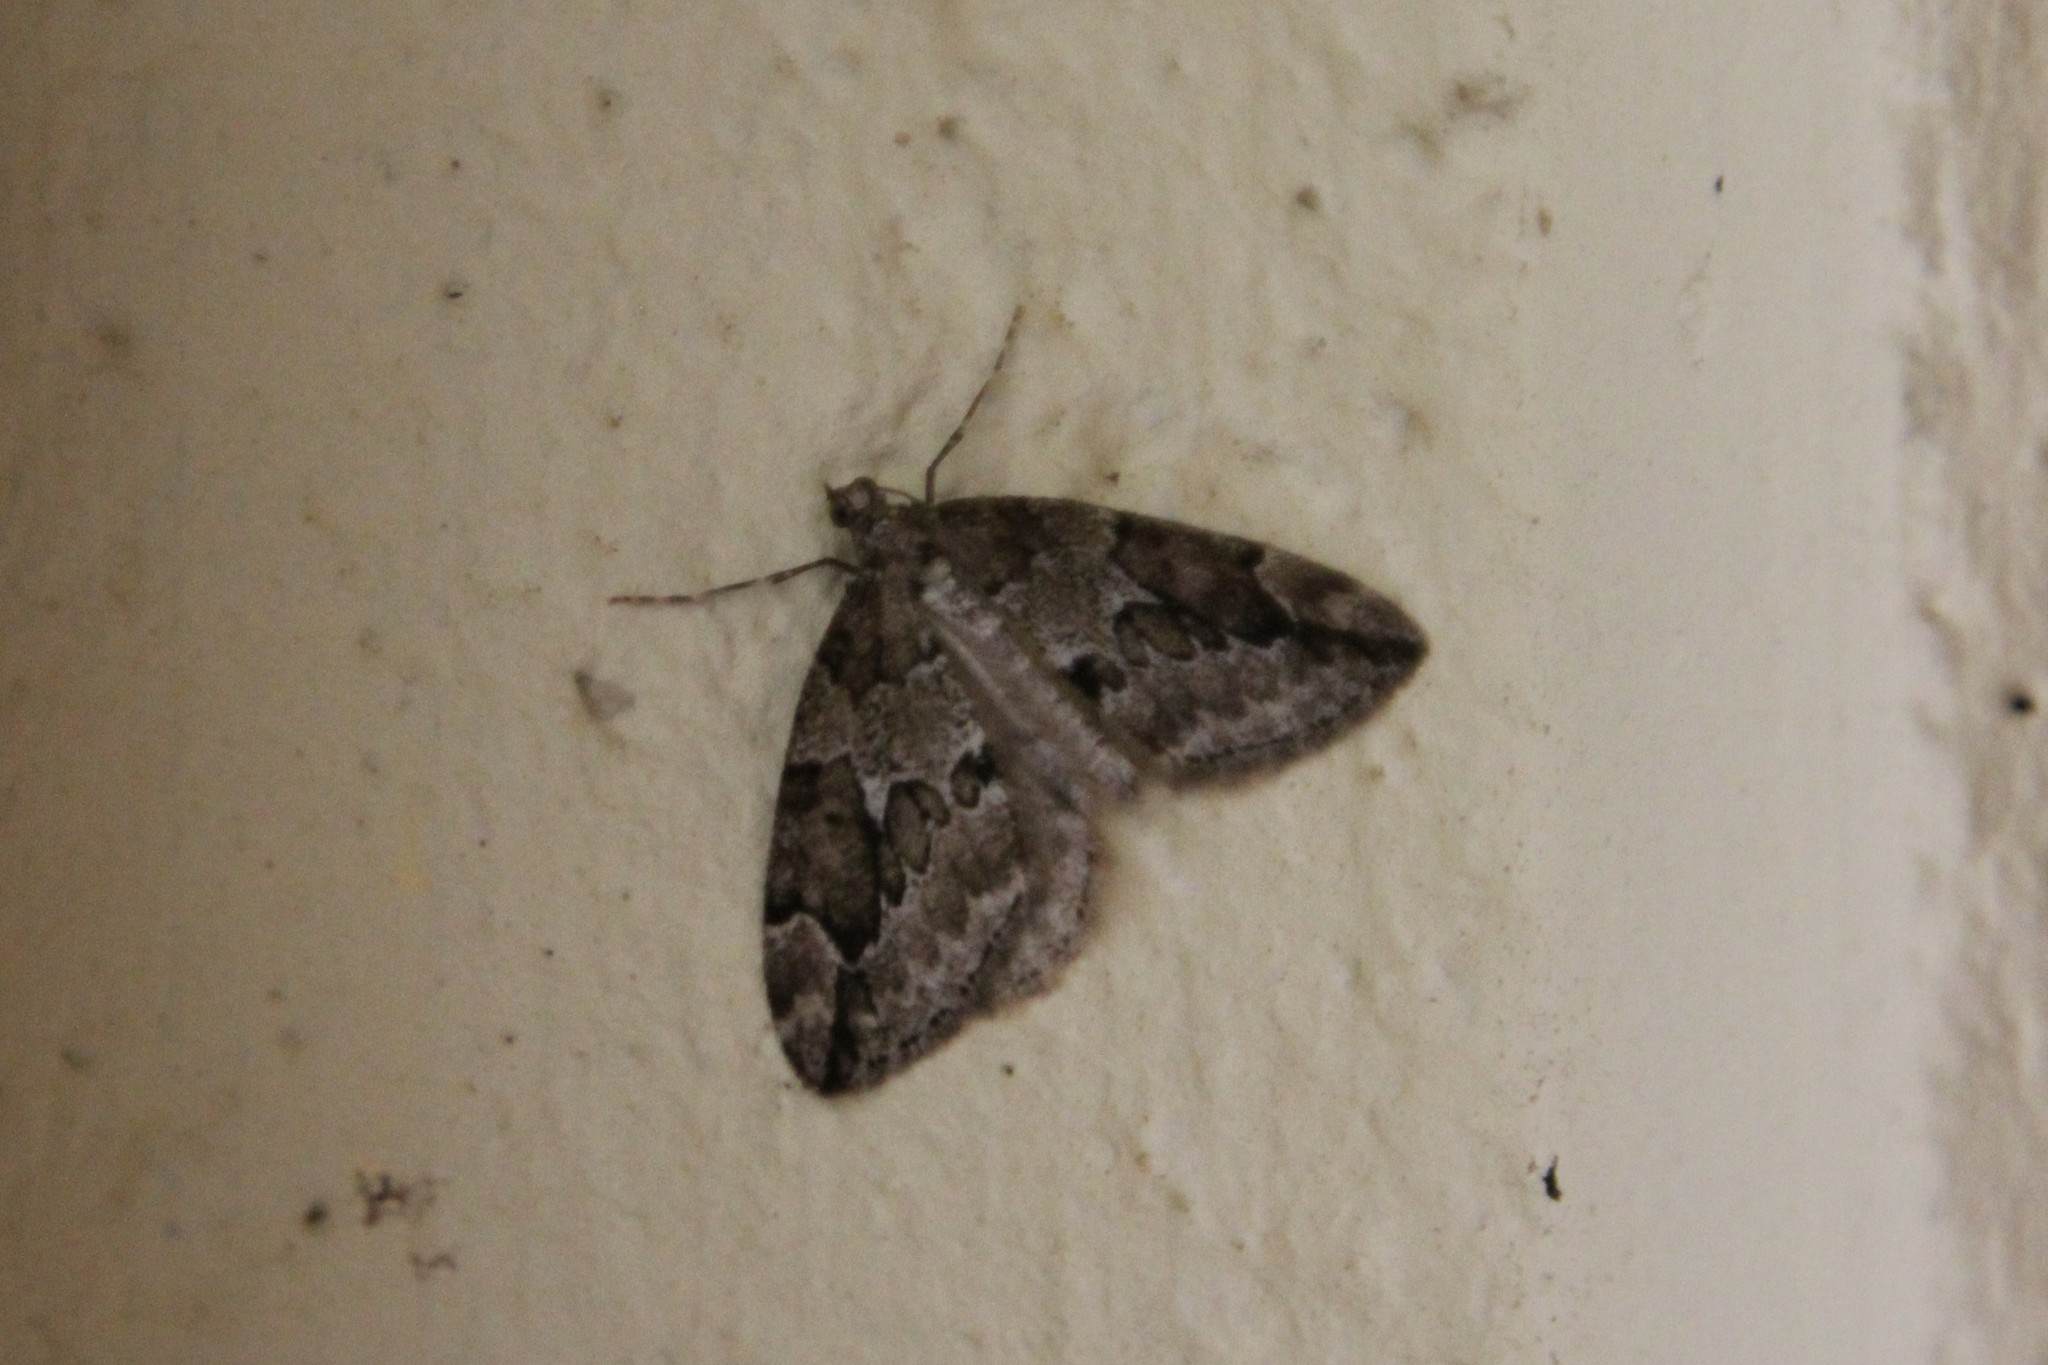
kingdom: Animalia
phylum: Arthropoda
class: Insecta
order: Lepidoptera
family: Geometridae
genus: Thera
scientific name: Thera juniperata
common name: Juniper carpet
